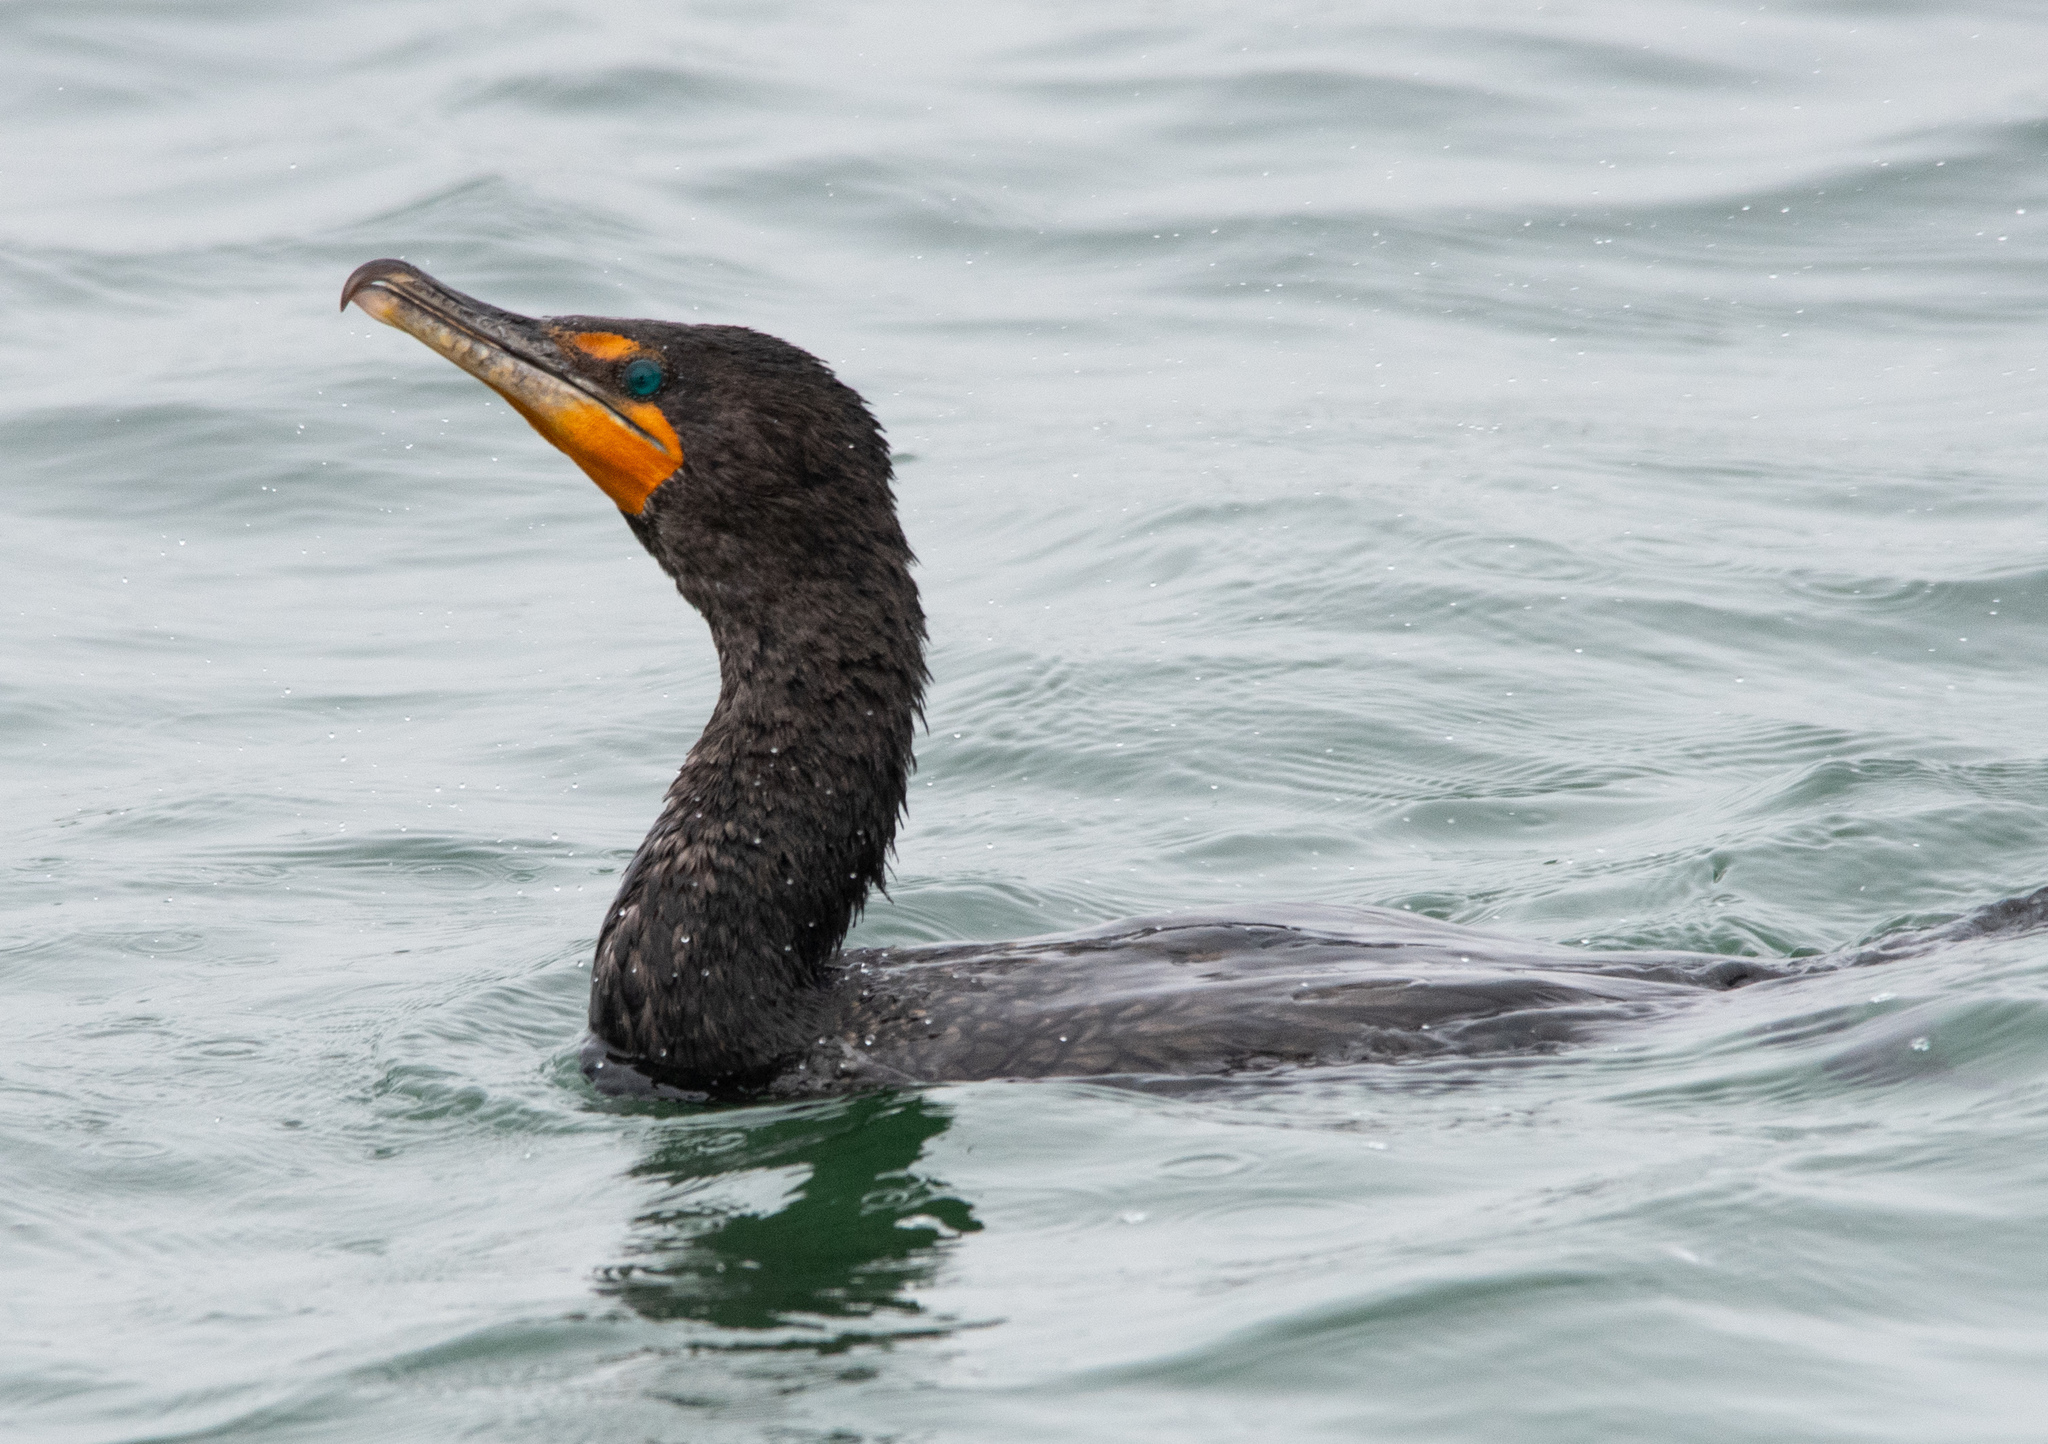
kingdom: Animalia
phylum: Chordata
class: Aves
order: Suliformes
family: Phalacrocoracidae
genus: Phalacrocorax
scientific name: Phalacrocorax auritus
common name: Double-crested cormorant
